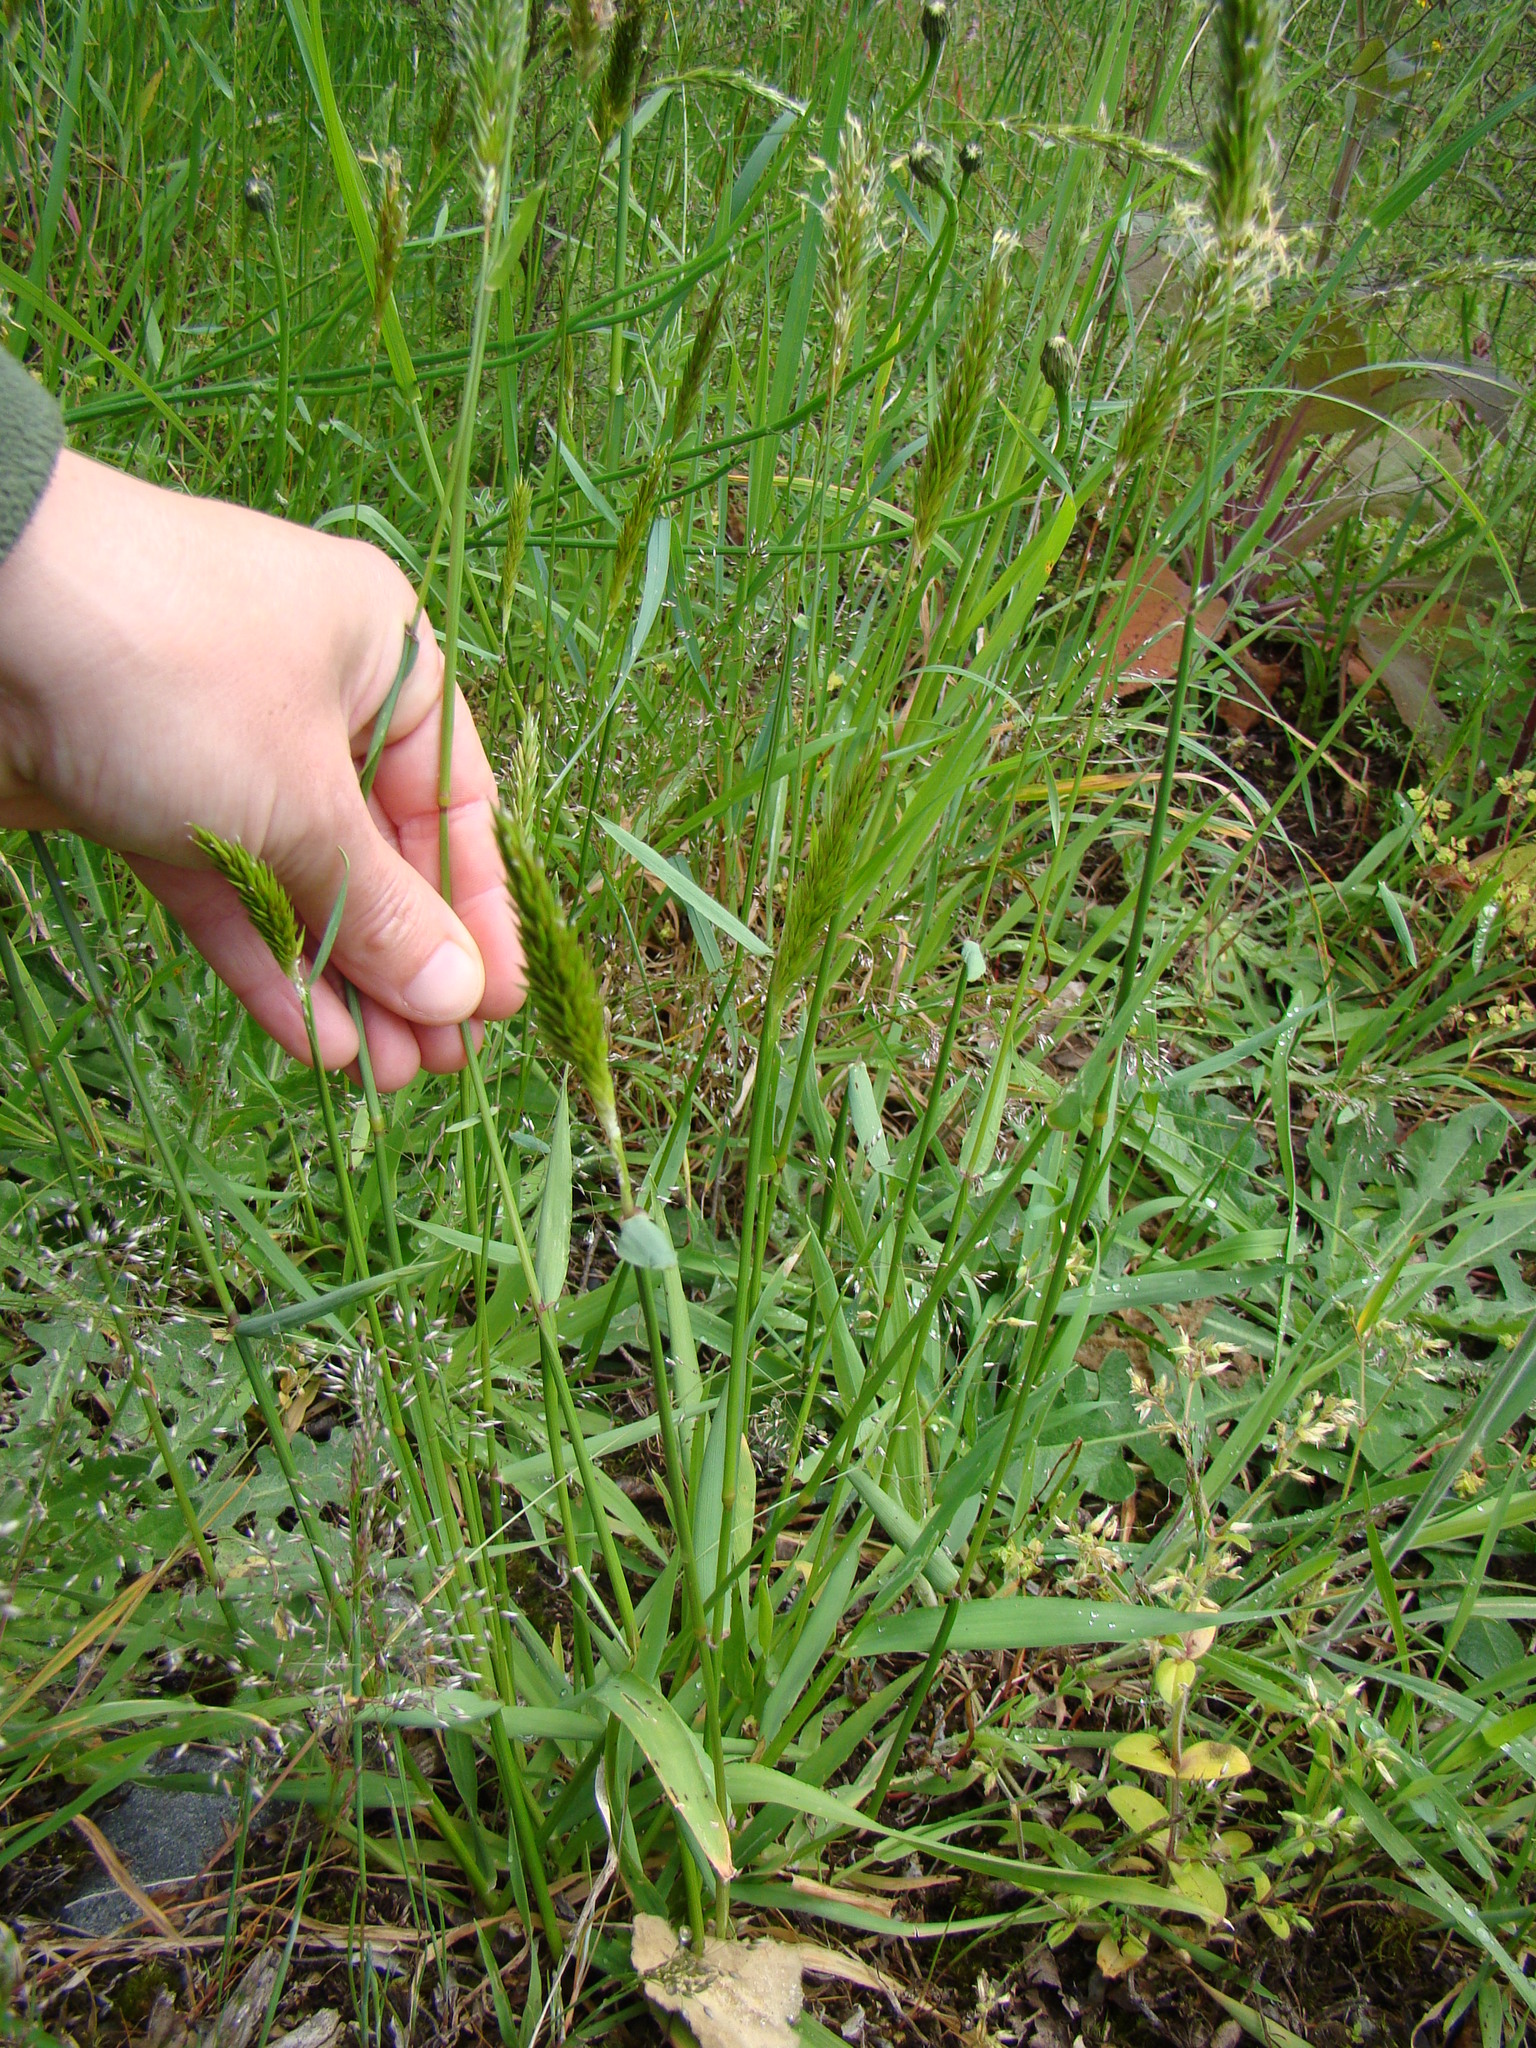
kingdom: Plantae
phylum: Tracheophyta
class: Liliopsida
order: Poales
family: Poaceae
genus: Anthoxanthum
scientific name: Anthoxanthum odoratum
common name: Sweet vernalgrass
